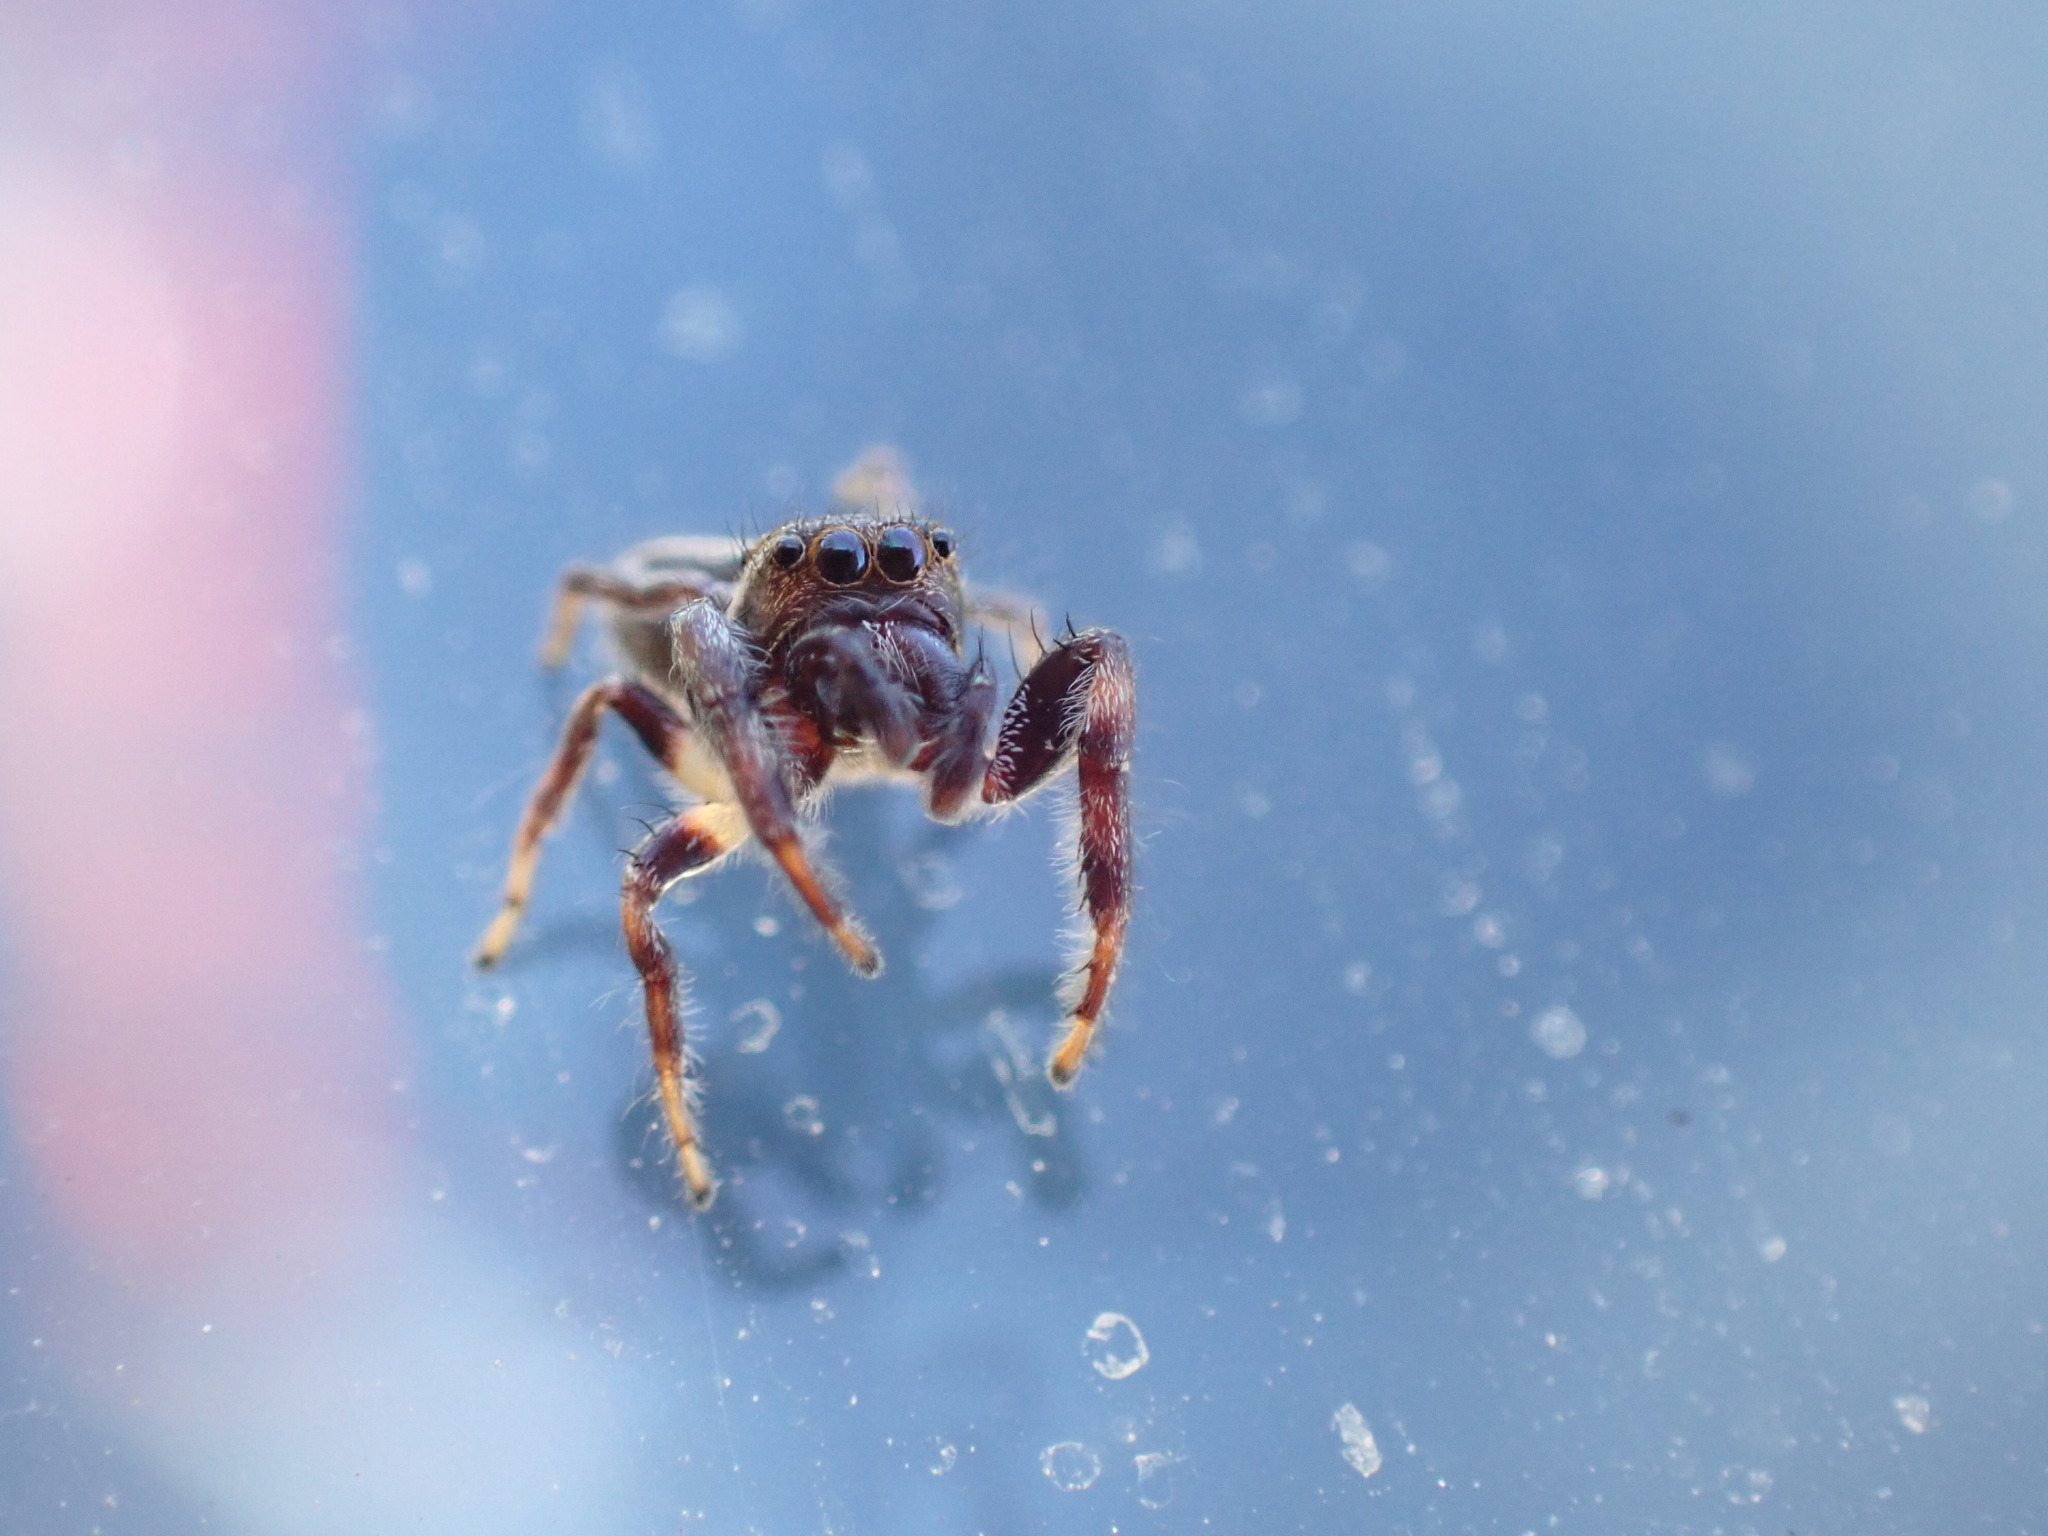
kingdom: Animalia
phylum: Arthropoda
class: Arachnida
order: Araneae
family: Salticidae
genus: Eris
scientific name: Eris militaris
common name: Bronze jumper
